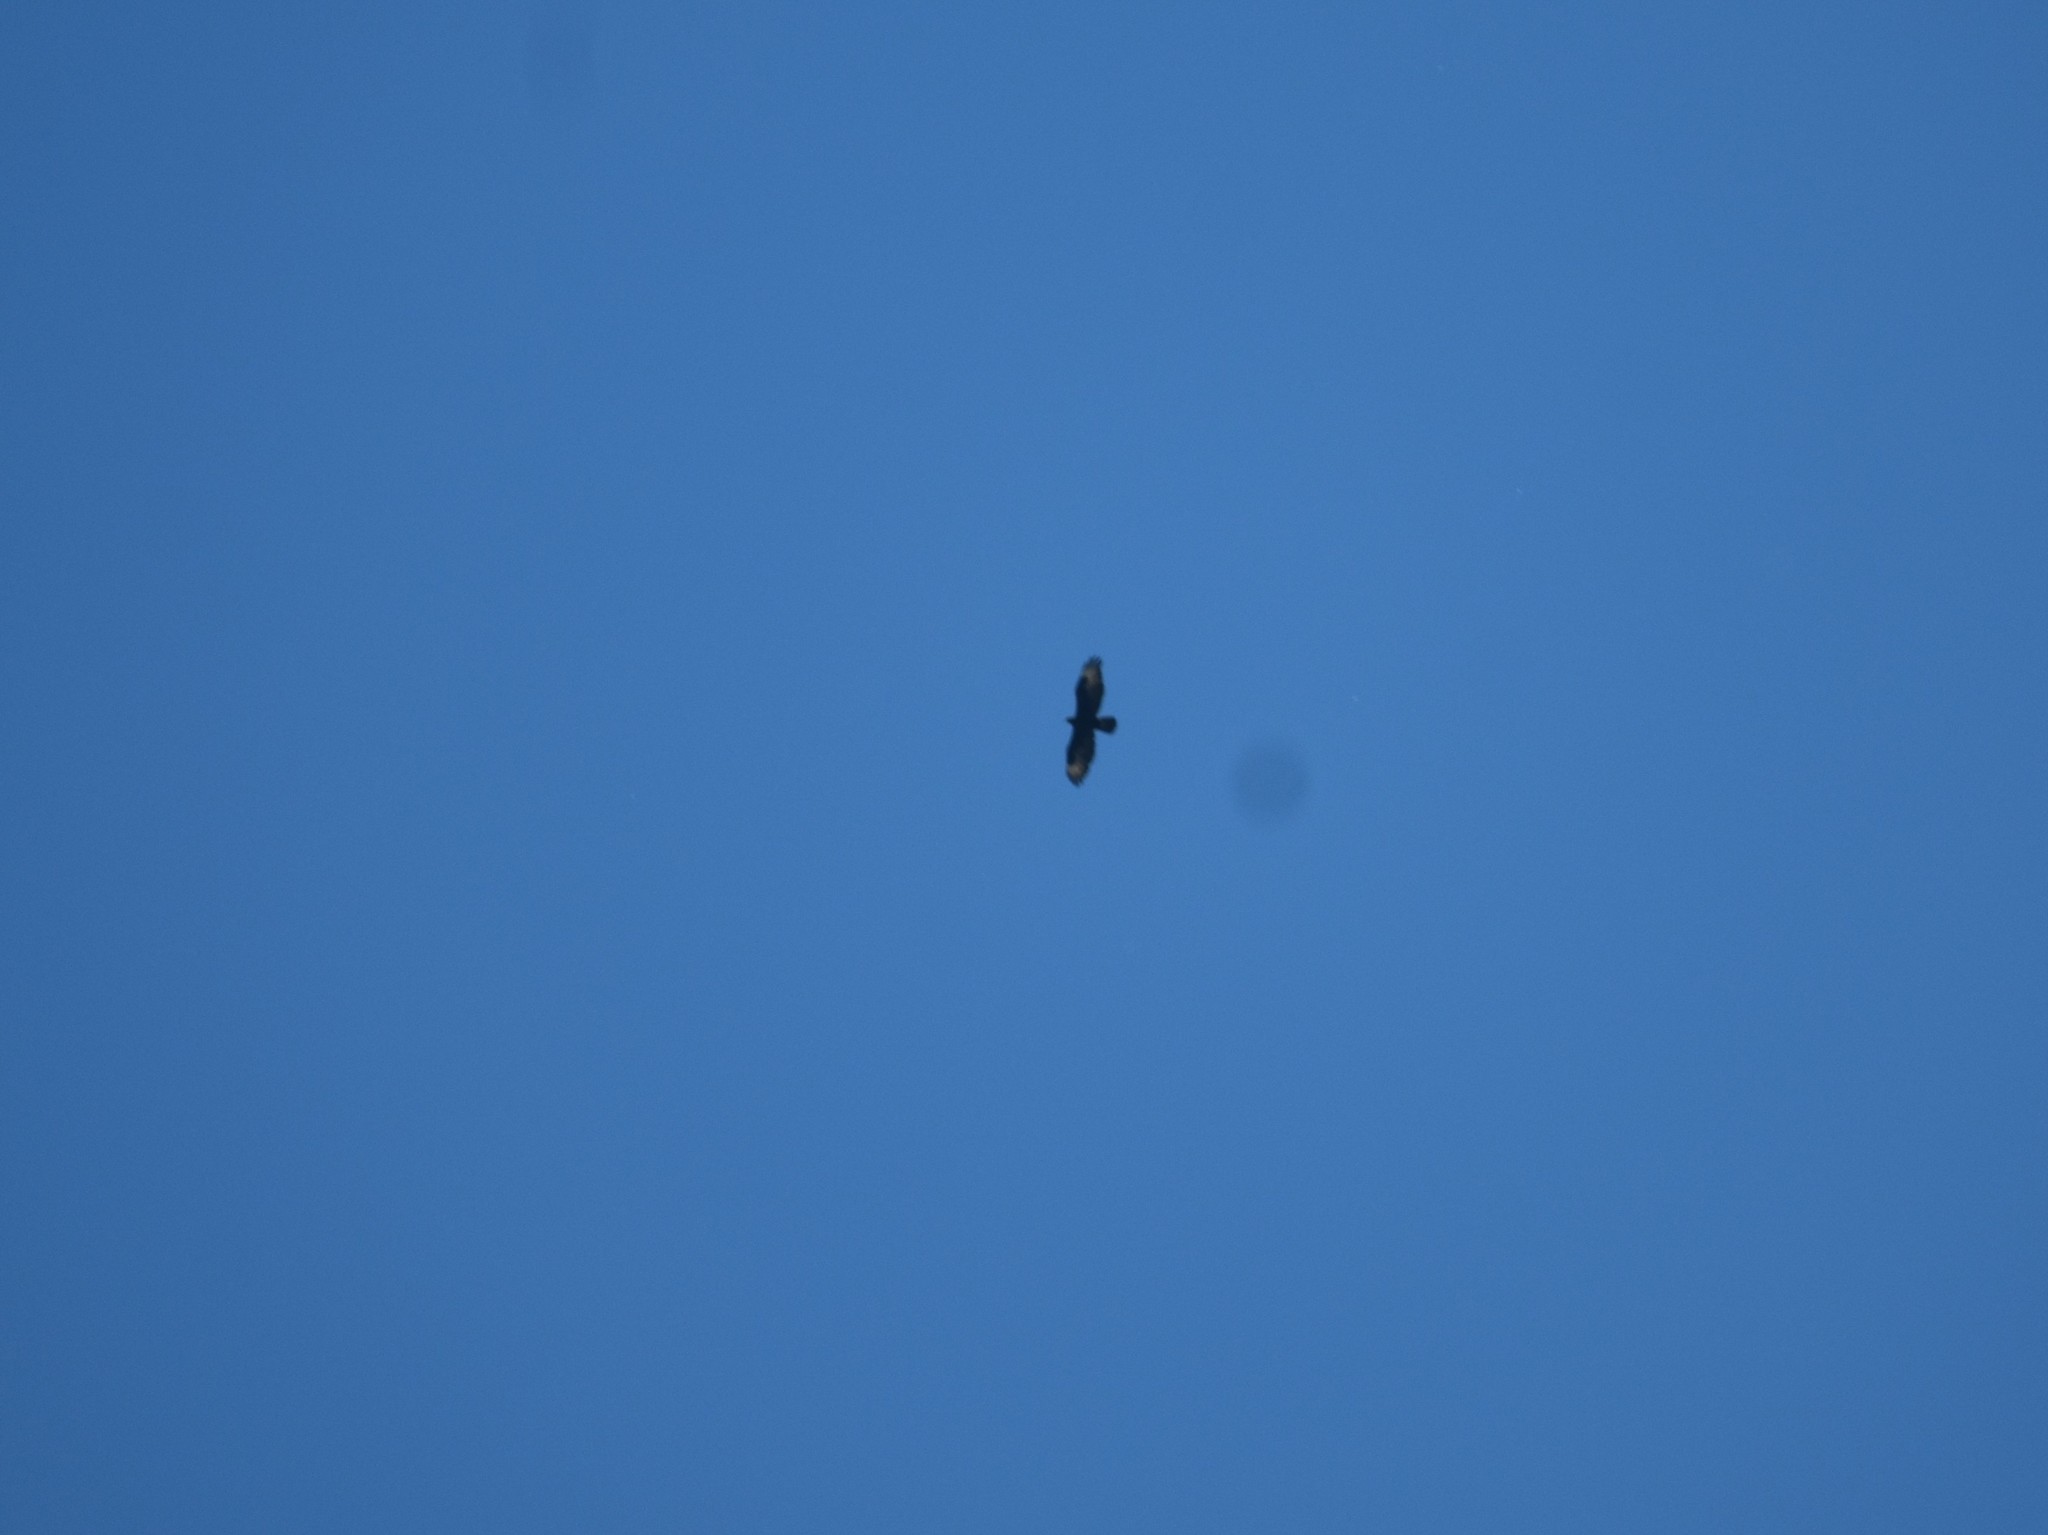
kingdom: Animalia
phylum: Chordata
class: Aves
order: Accipitriformes
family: Accipitridae
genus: Aquila
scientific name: Aquila verreauxii
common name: Verreaux's eagle
